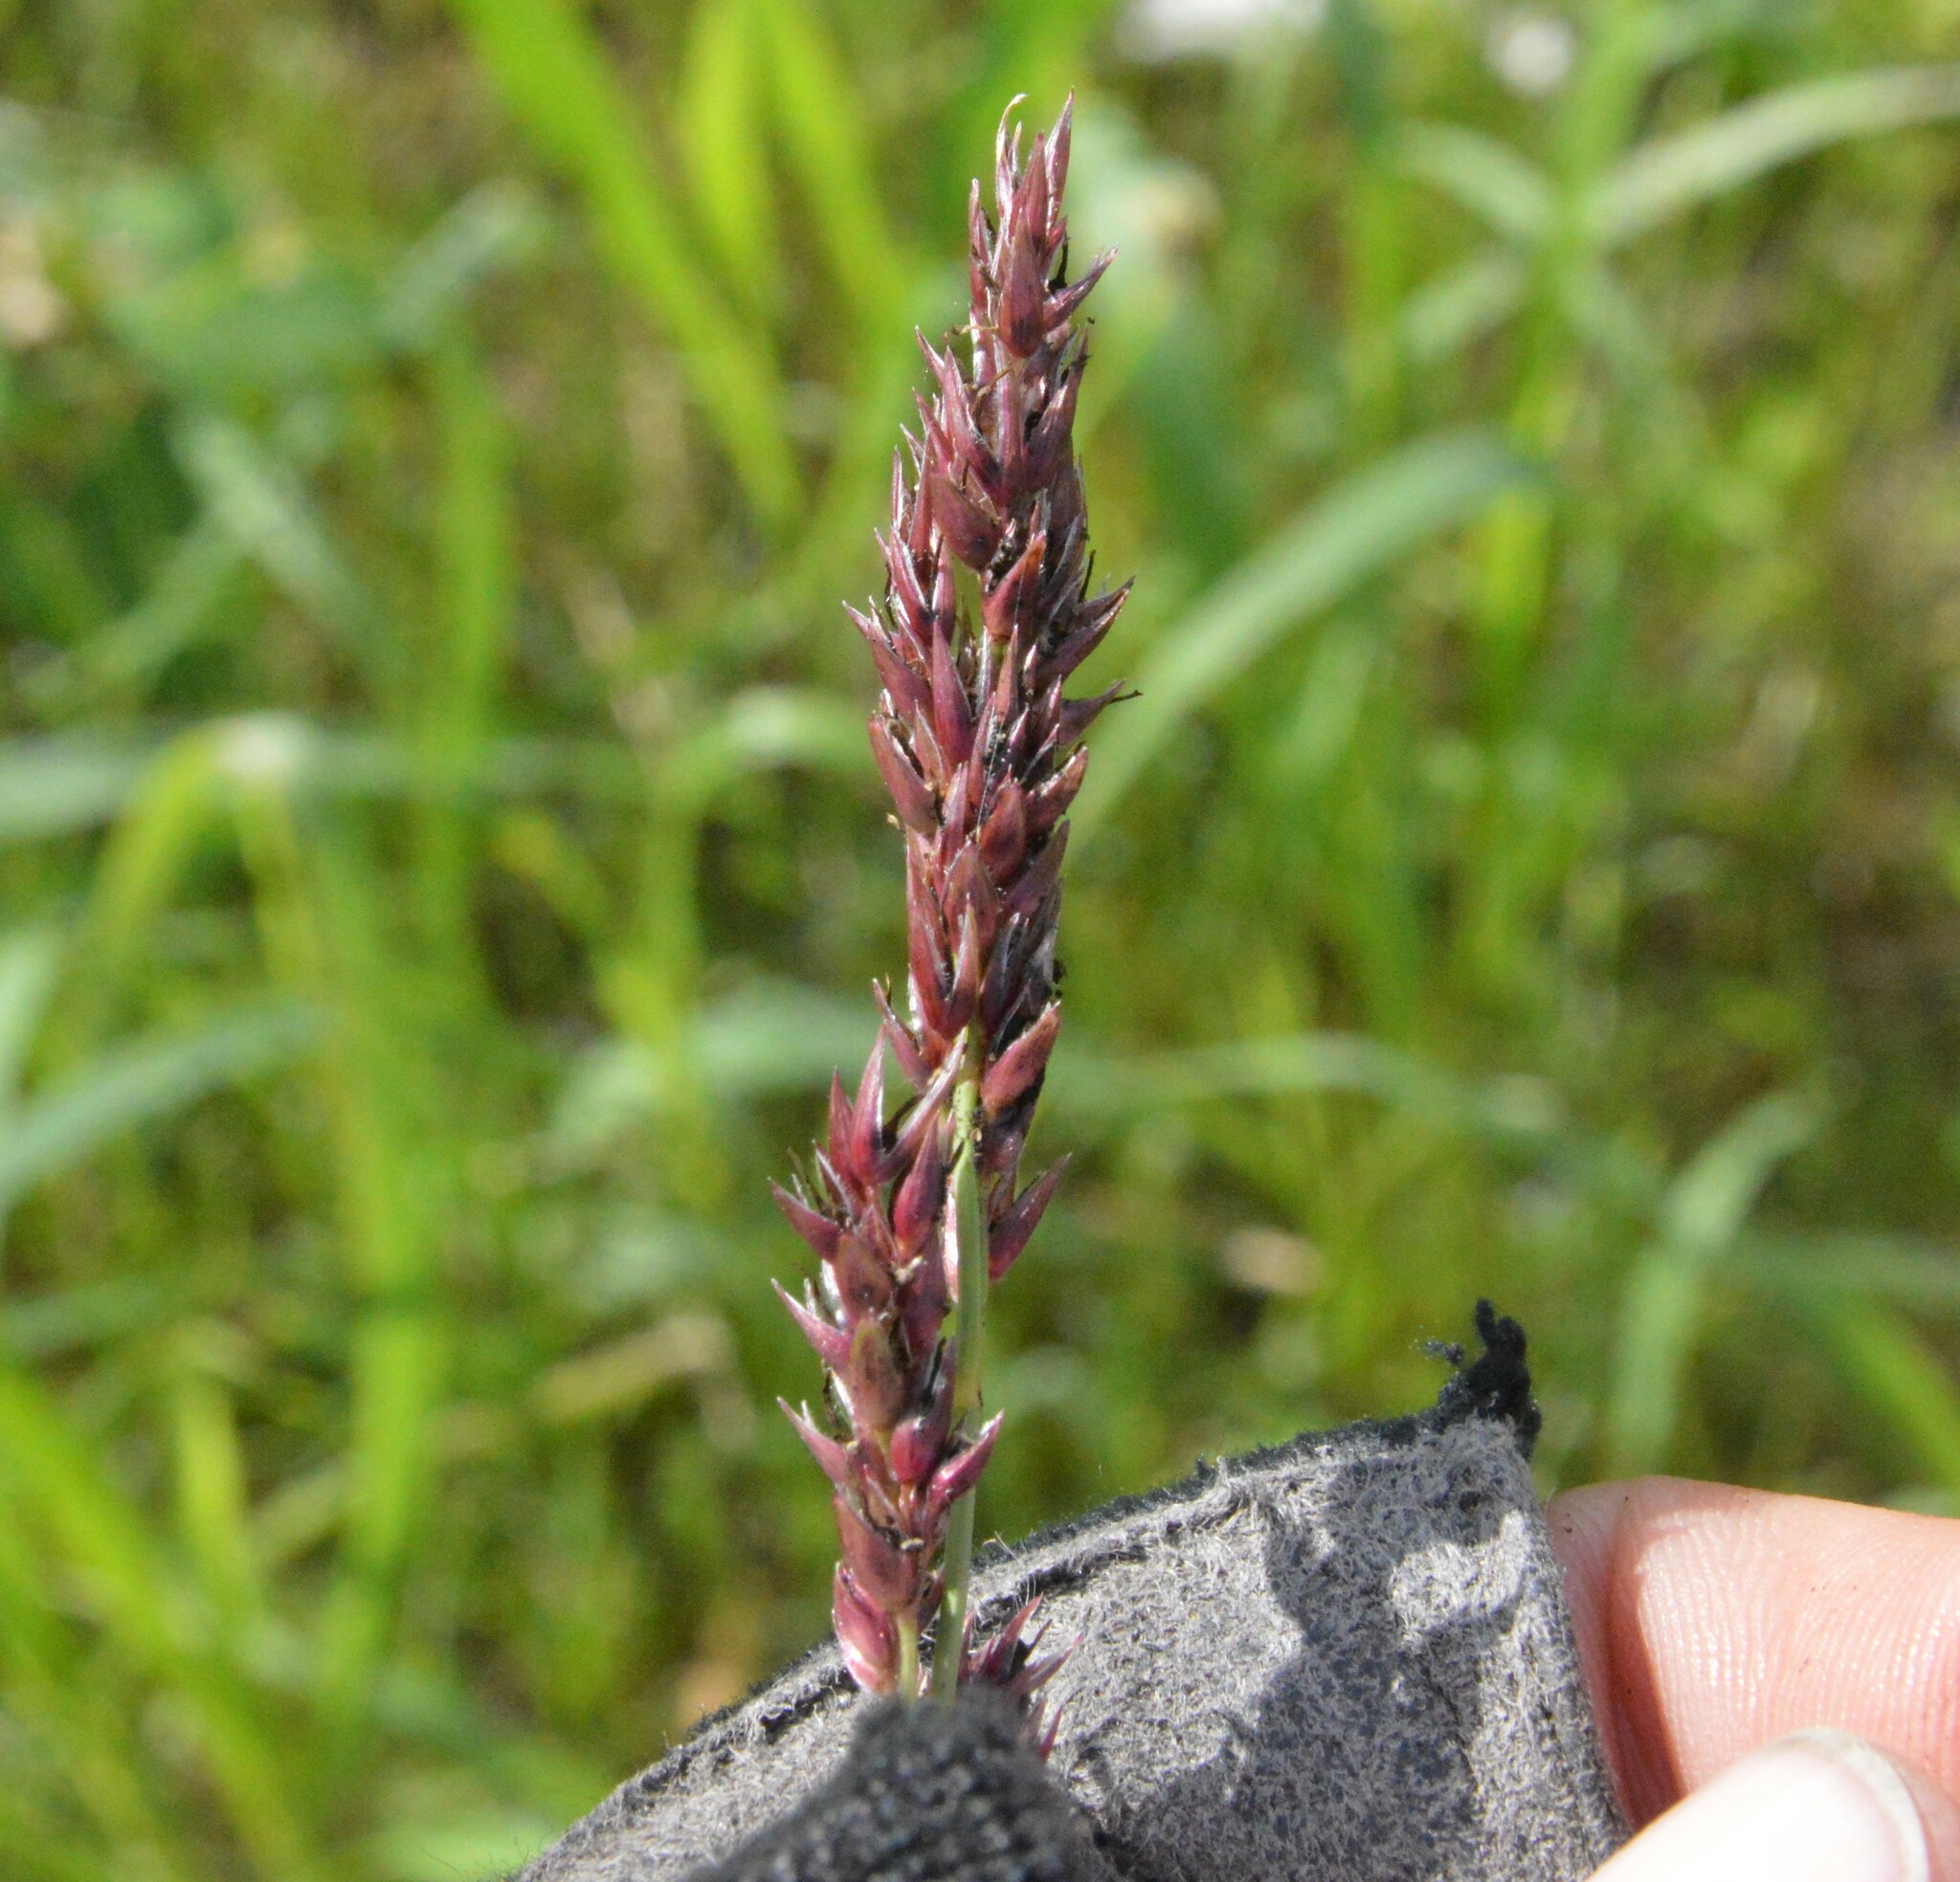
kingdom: Plantae
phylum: Tracheophyta
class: Liliopsida
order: Poales
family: Poaceae
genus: Sorghum
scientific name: Sorghum halepense
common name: Johnson-grass
